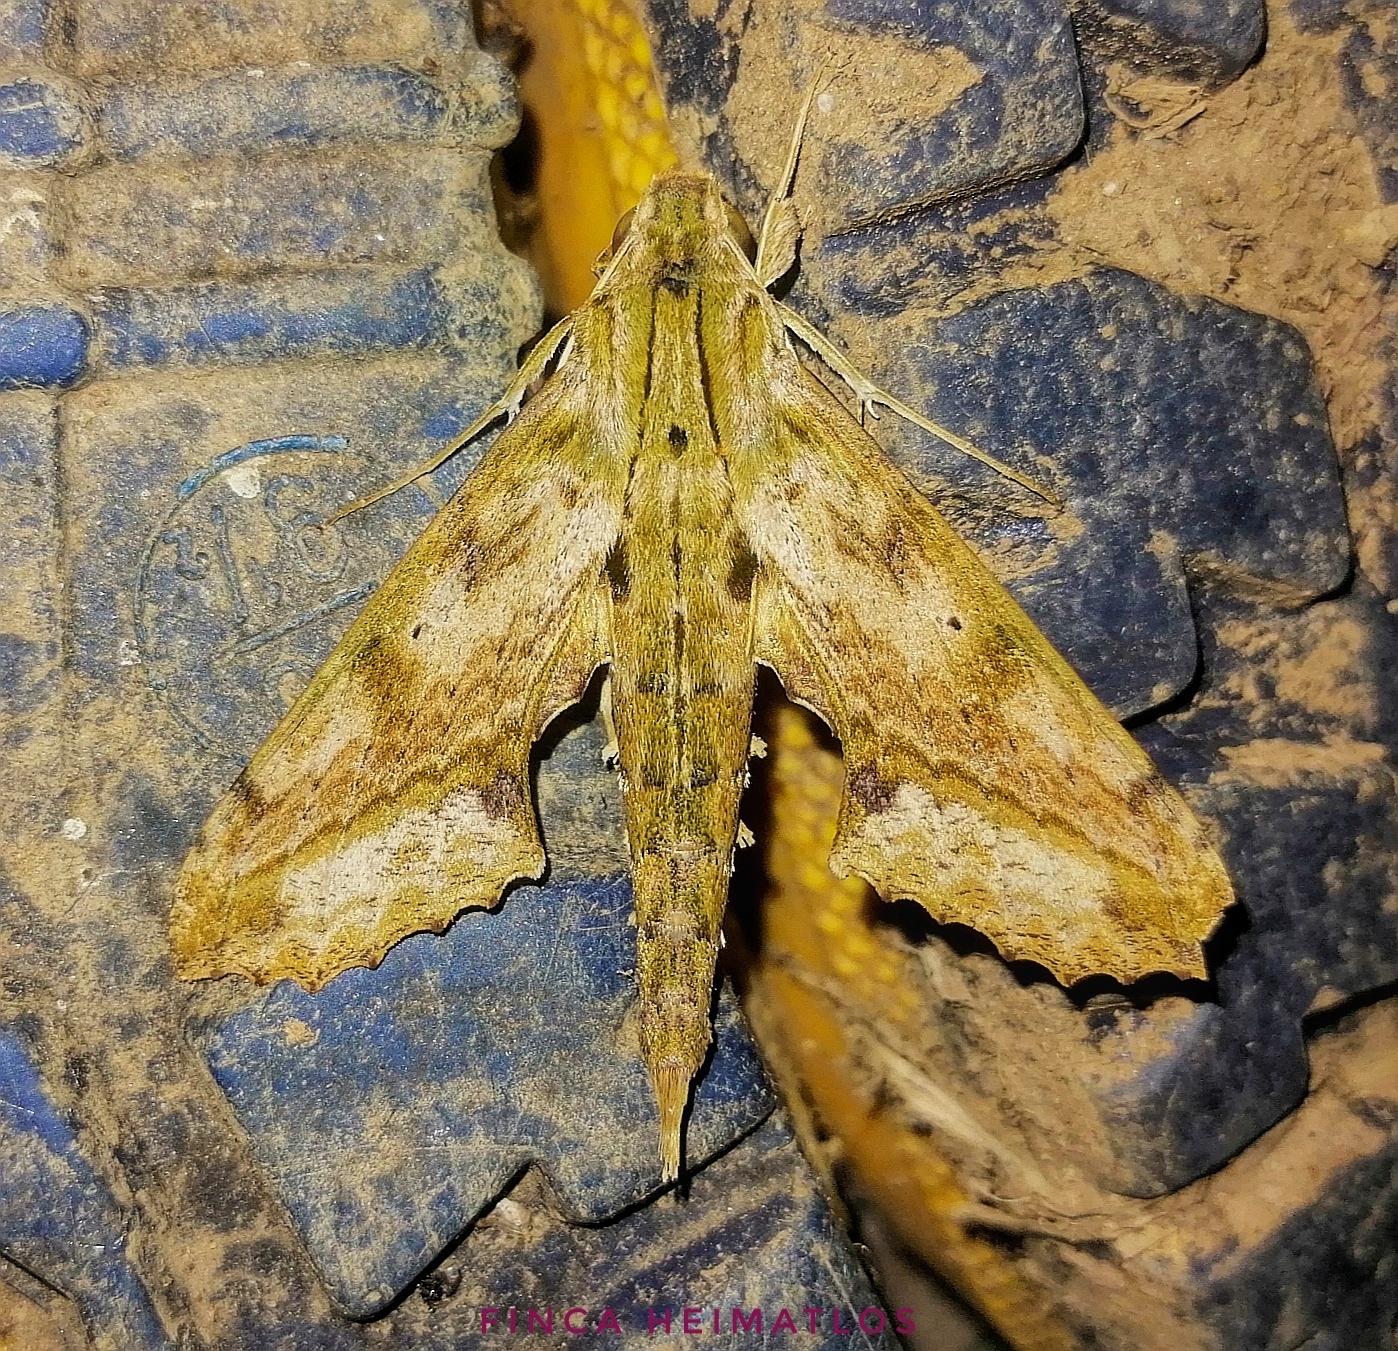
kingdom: Animalia
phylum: Arthropoda
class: Insecta
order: Lepidoptera
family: Sphingidae
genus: Xylophanes
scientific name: Xylophanes undata
